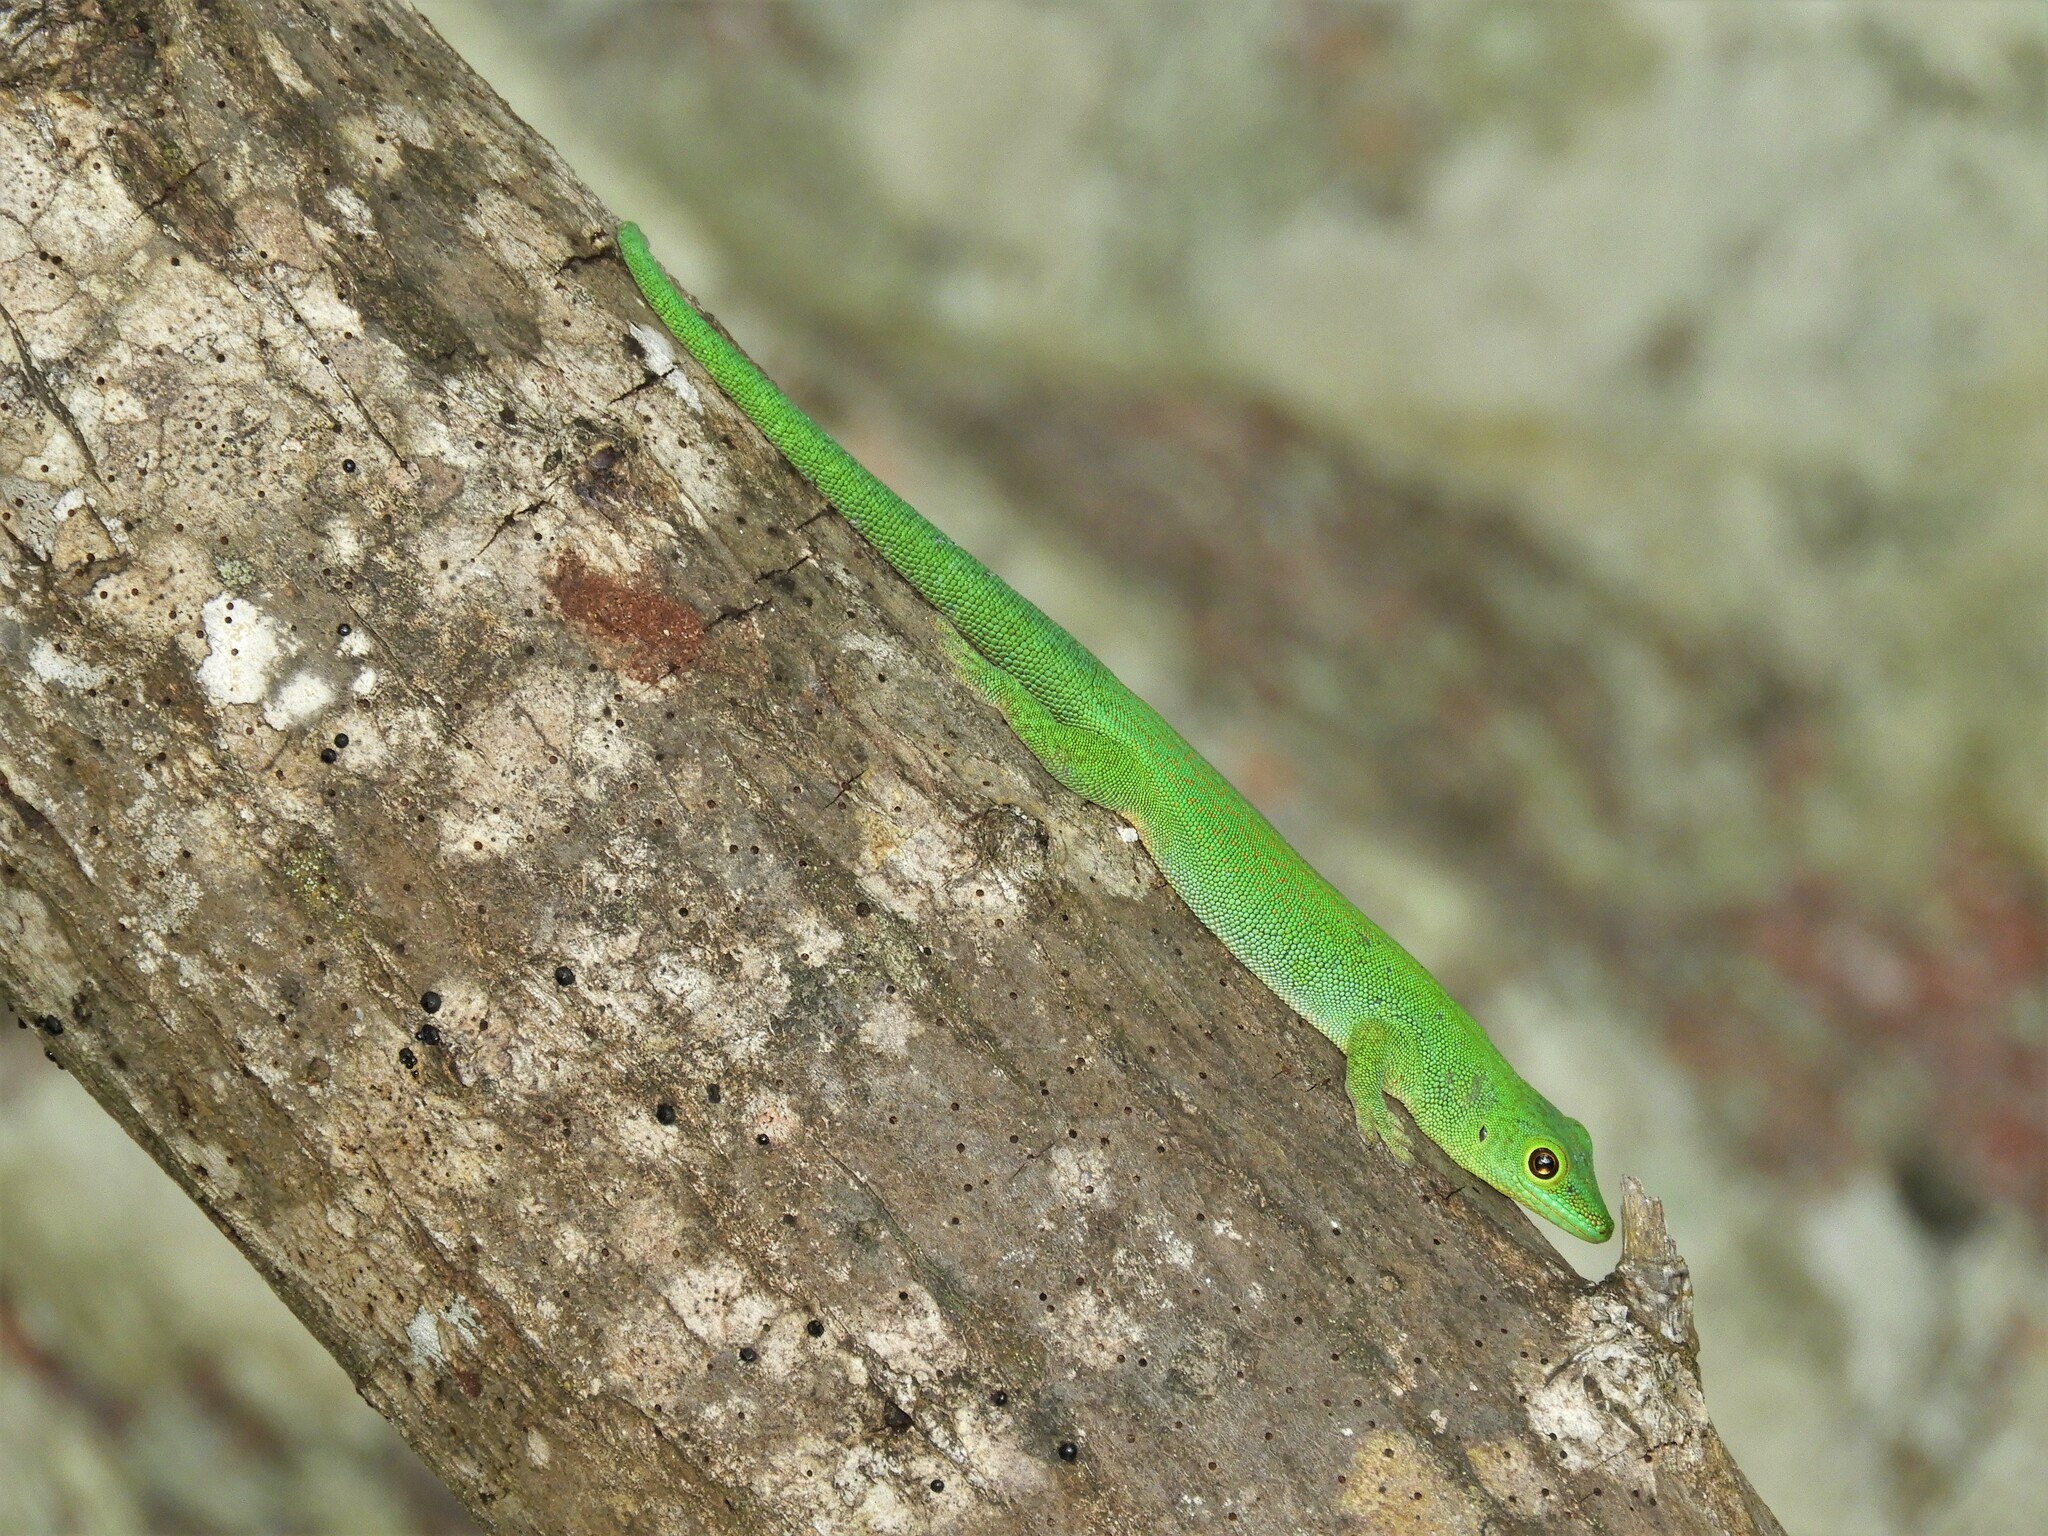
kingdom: Animalia
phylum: Chordata
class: Squamata
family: Gekkonidae
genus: Phelsuma
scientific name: Phelsuma sundbergi
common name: Seychelles giant day gecko
